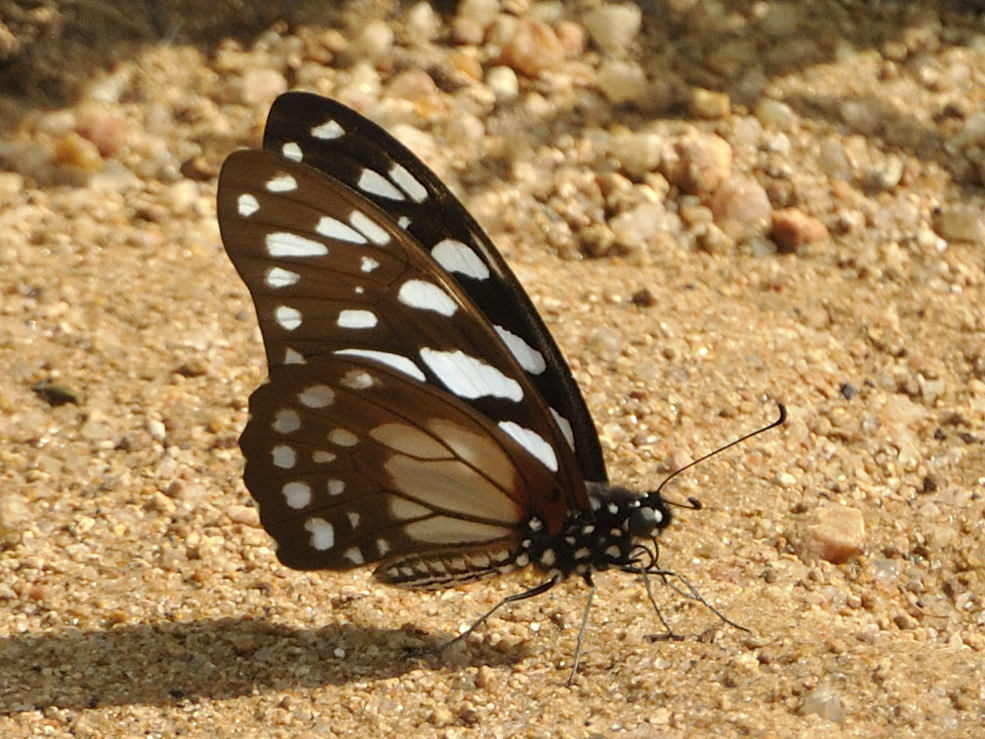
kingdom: Animalia
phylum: Arthropoda
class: Insecta
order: Lepidoptera
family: Papilionidae
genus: Graphium
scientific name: Graphium leonidas
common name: Common graphium
